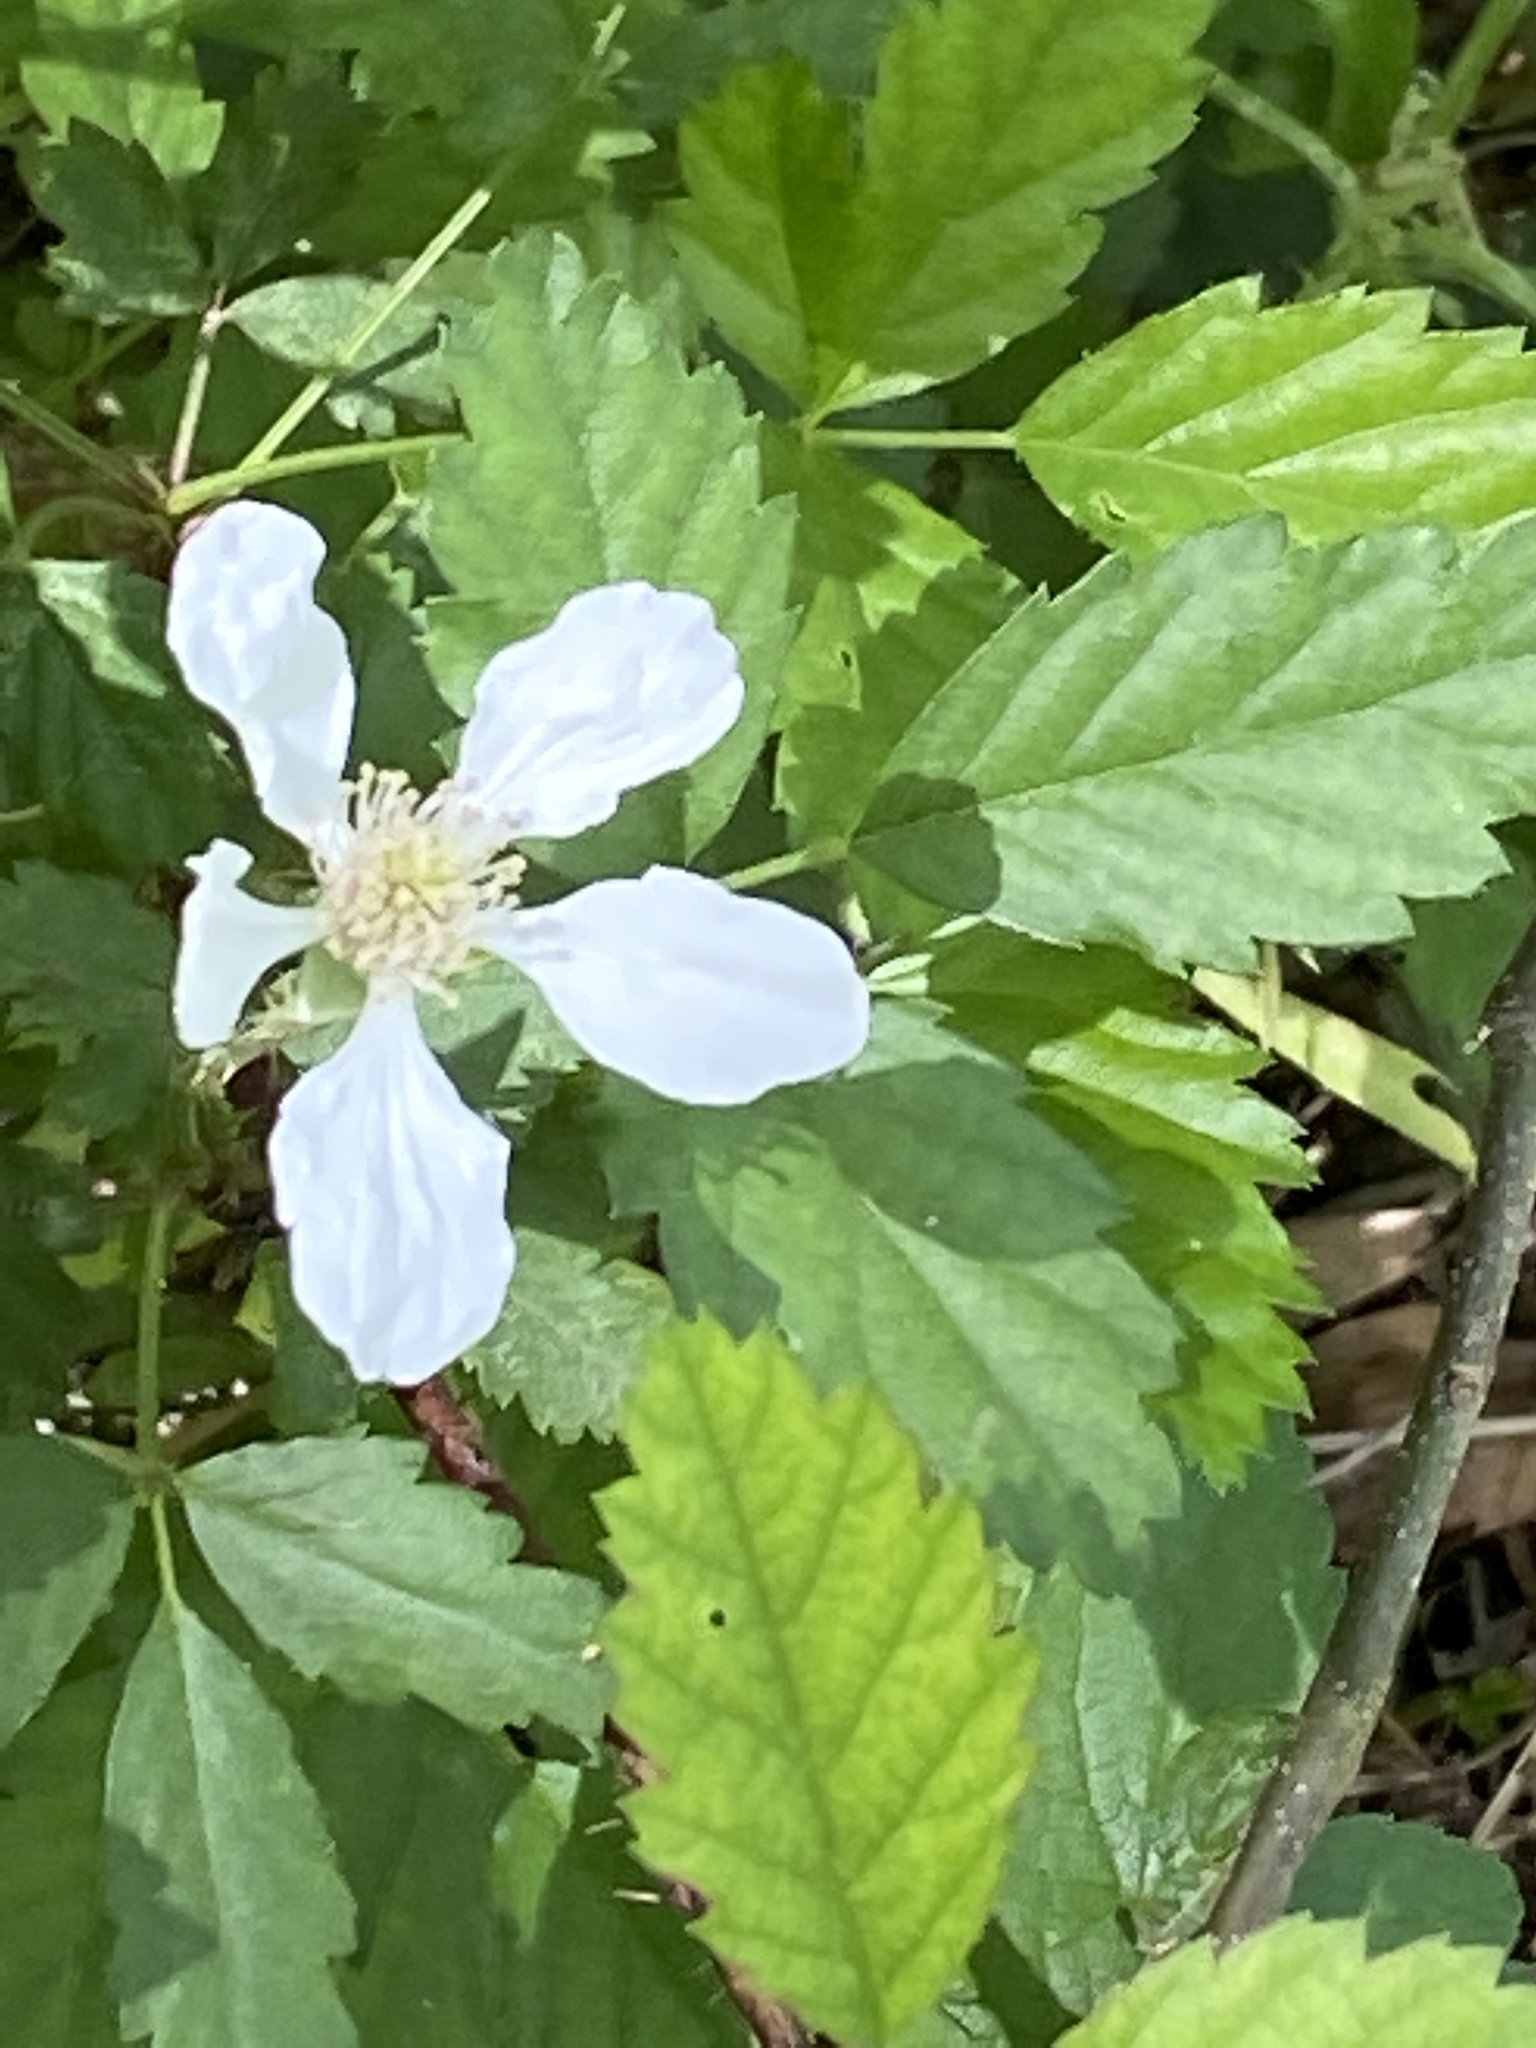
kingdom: Plantae
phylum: Tracheophyta
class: Magnoliopsida
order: Rosales
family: Rosaceae
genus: Rubus
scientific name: Rubus trivialis
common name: Southern dewberry
